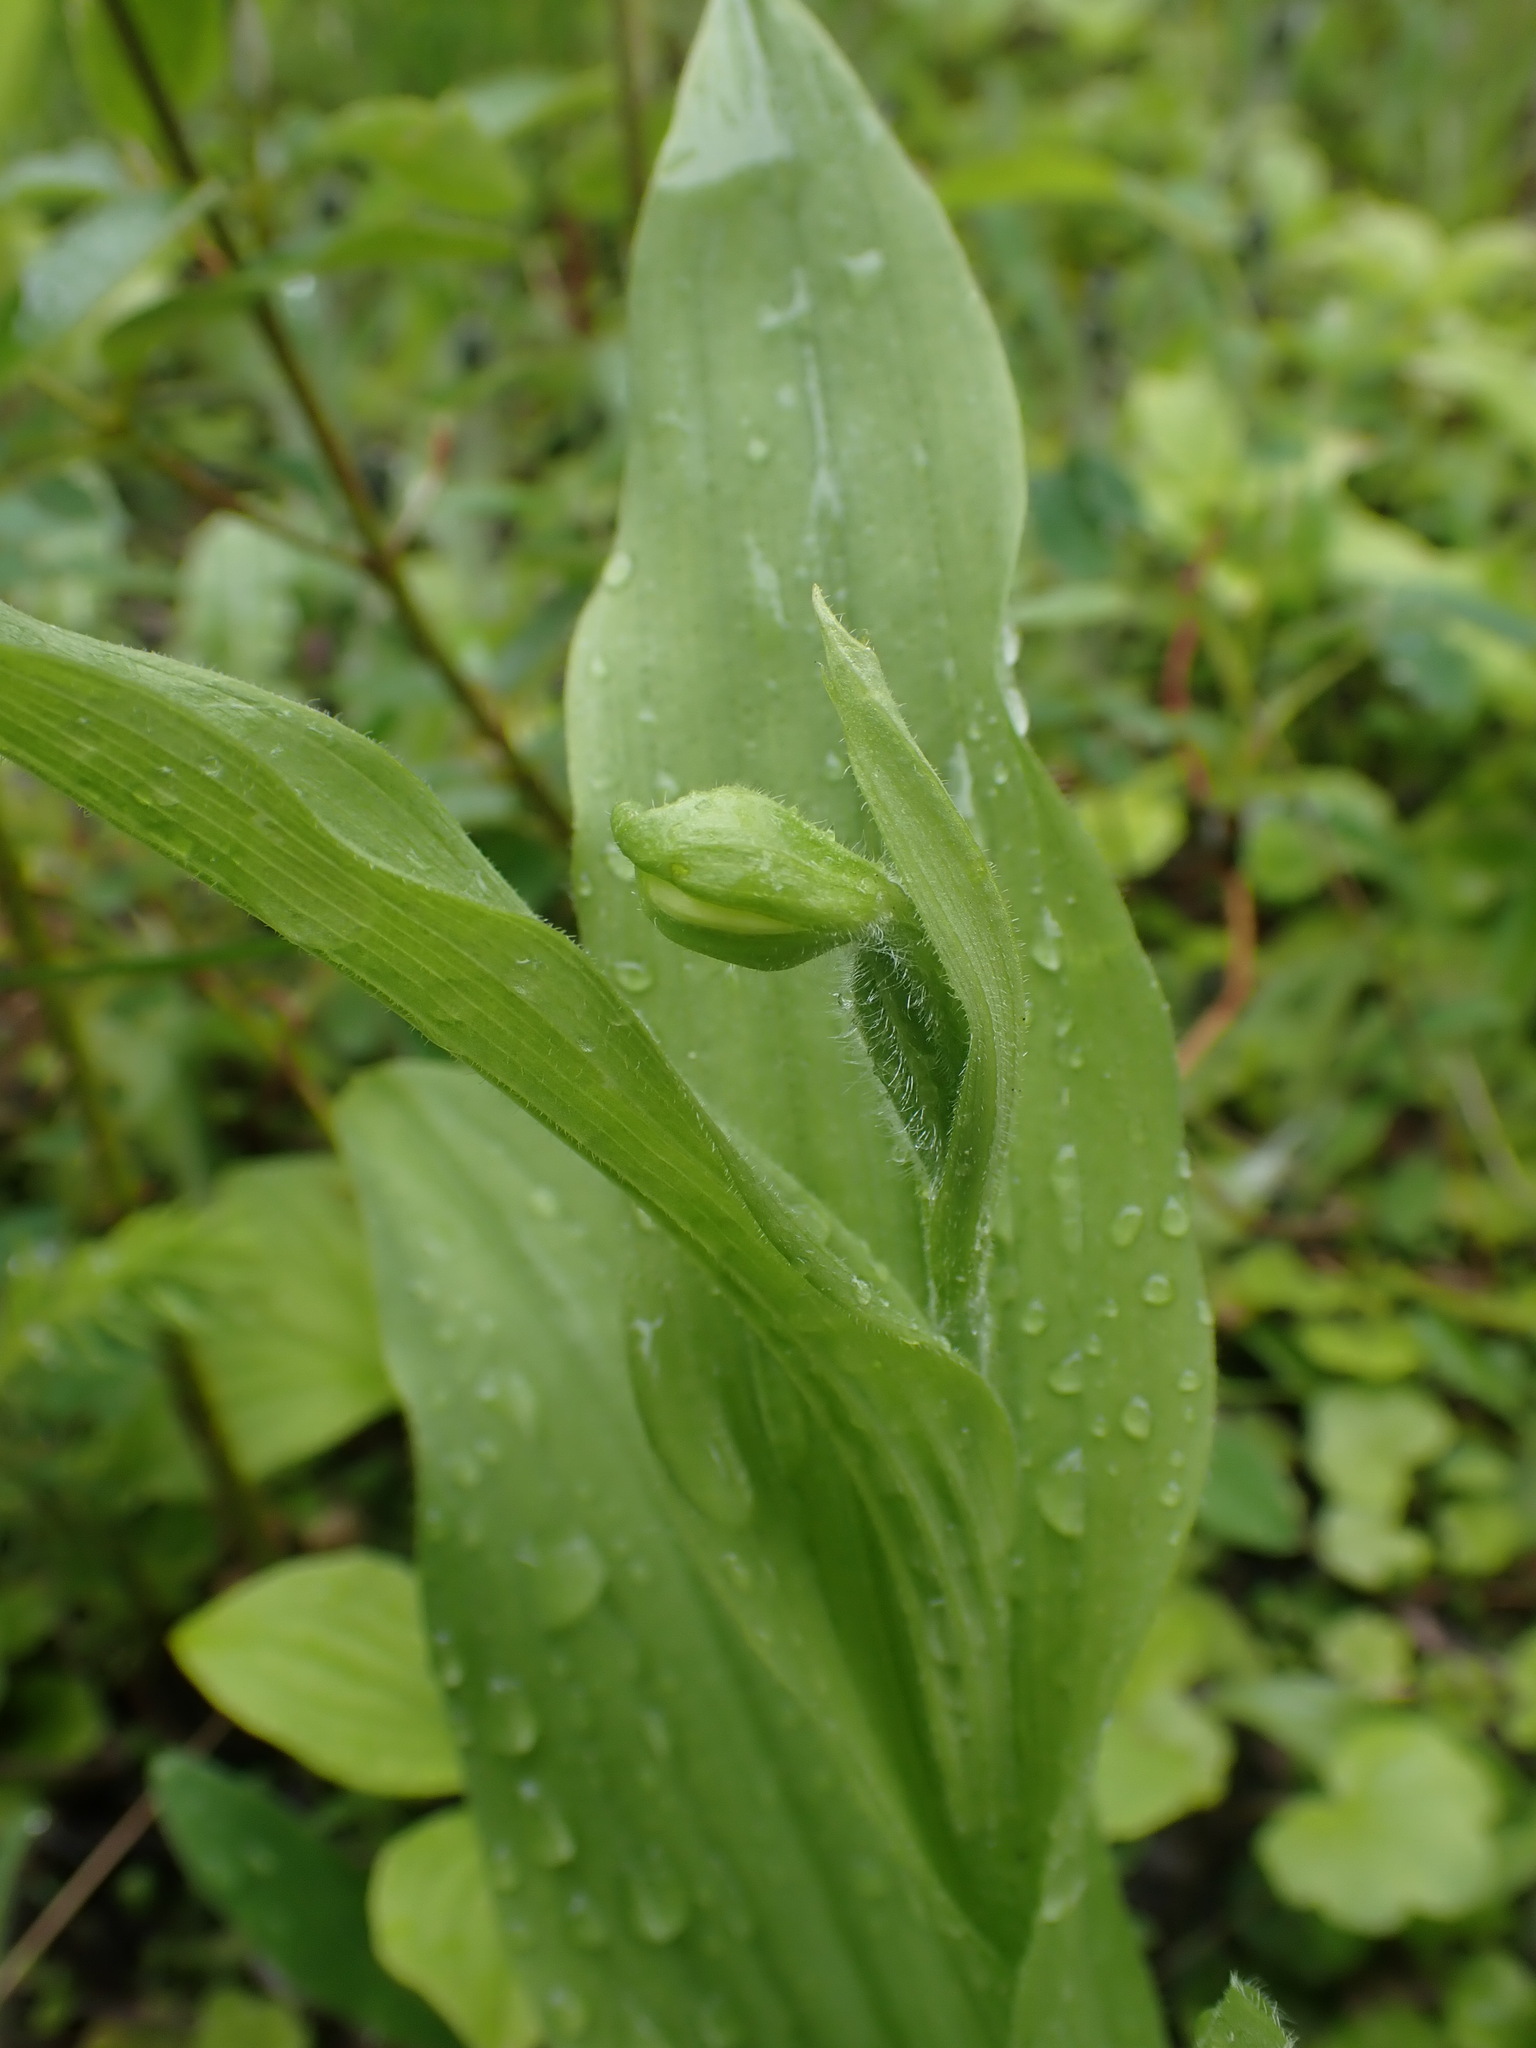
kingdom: Plantae
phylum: Tracheophyta
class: Liliopsida
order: Asparagales
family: Orchidaceae
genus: Cypripedium
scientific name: Cypripedium passerinum
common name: Sparrow's-egg lady's-slipper
